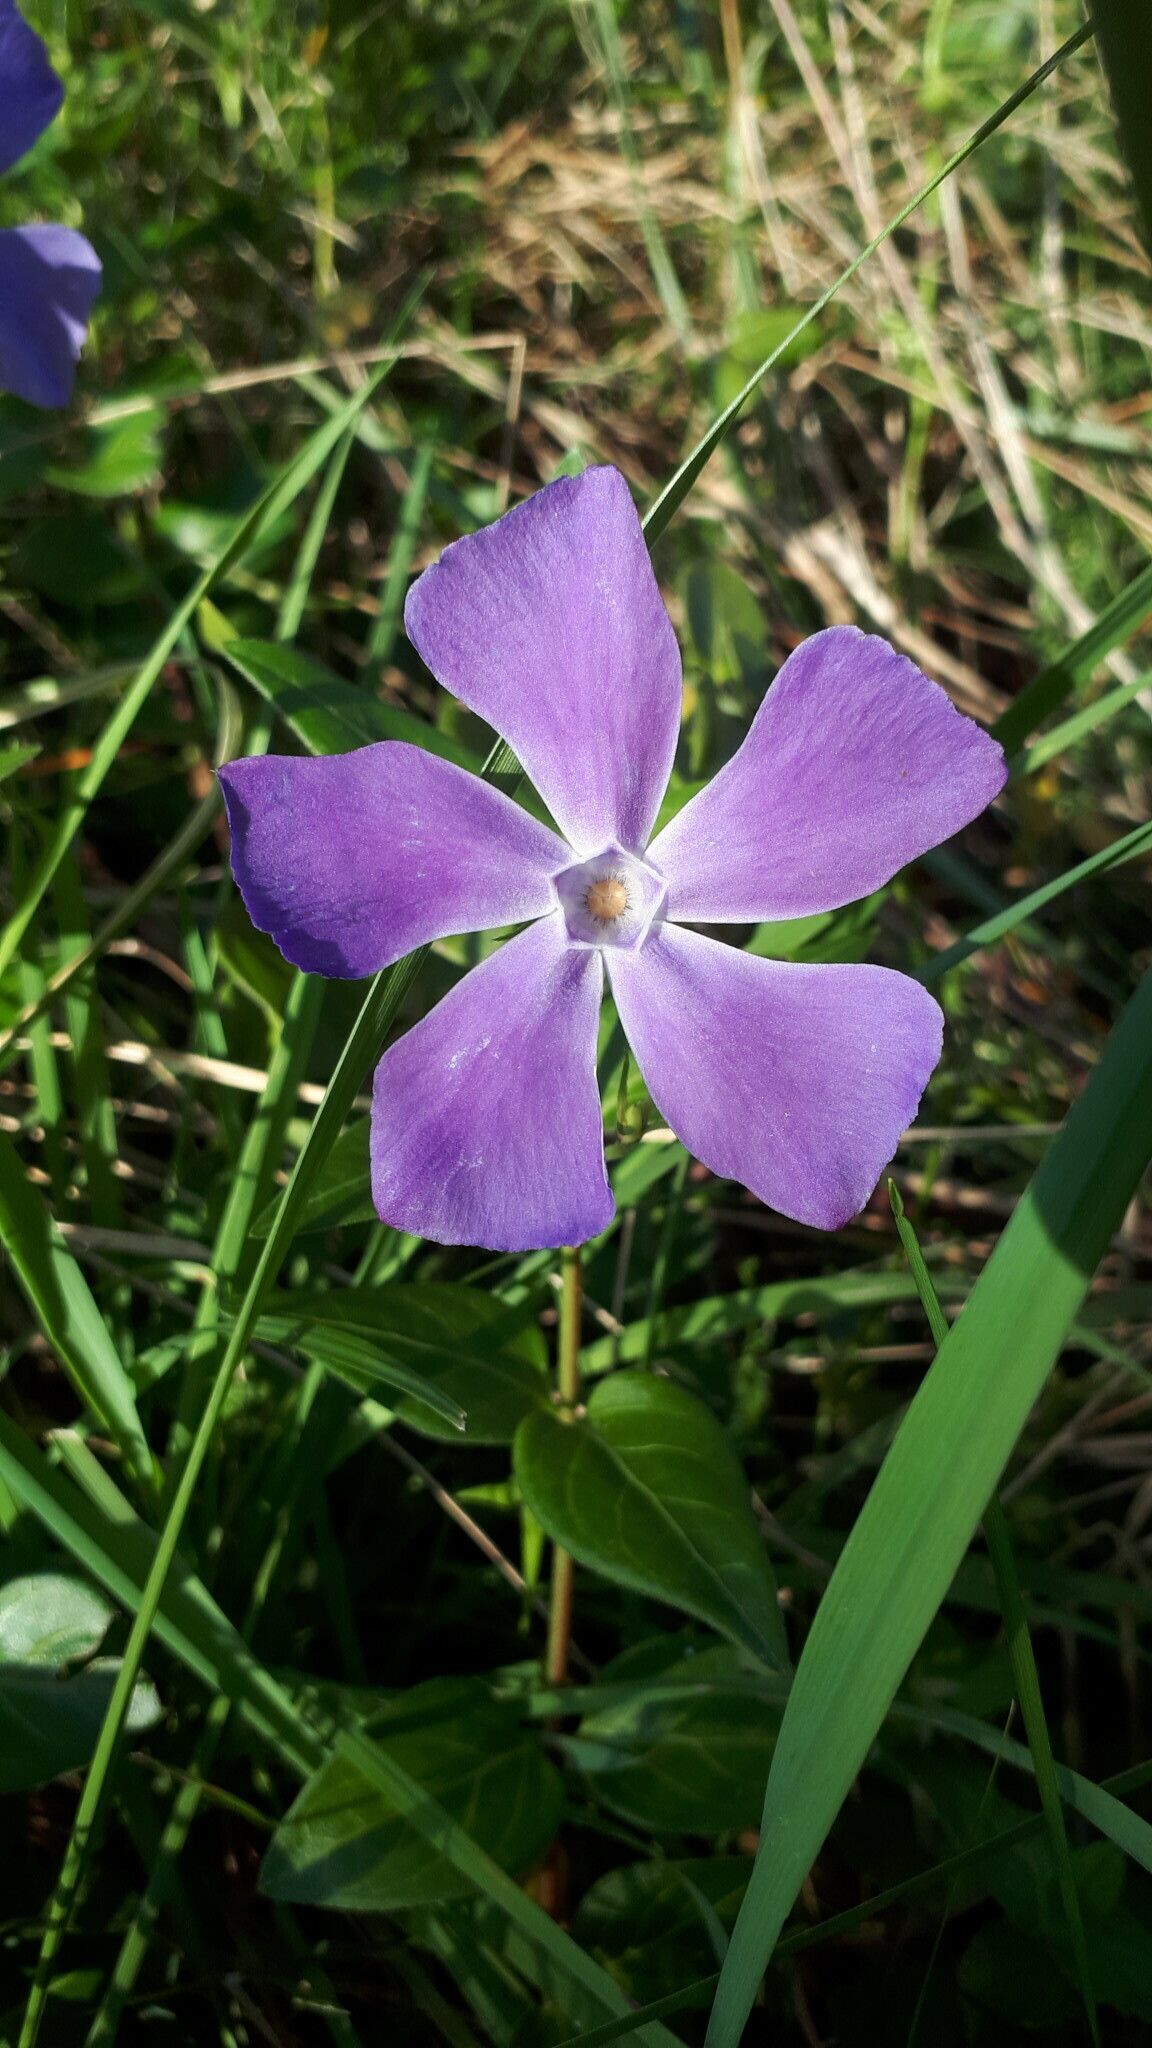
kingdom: Plantae
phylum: Tracheophyta
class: Magnoliopsida
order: Gentianales
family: Apocynaceae
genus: Vinca
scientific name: Vinca major
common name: Greater periwinkle
